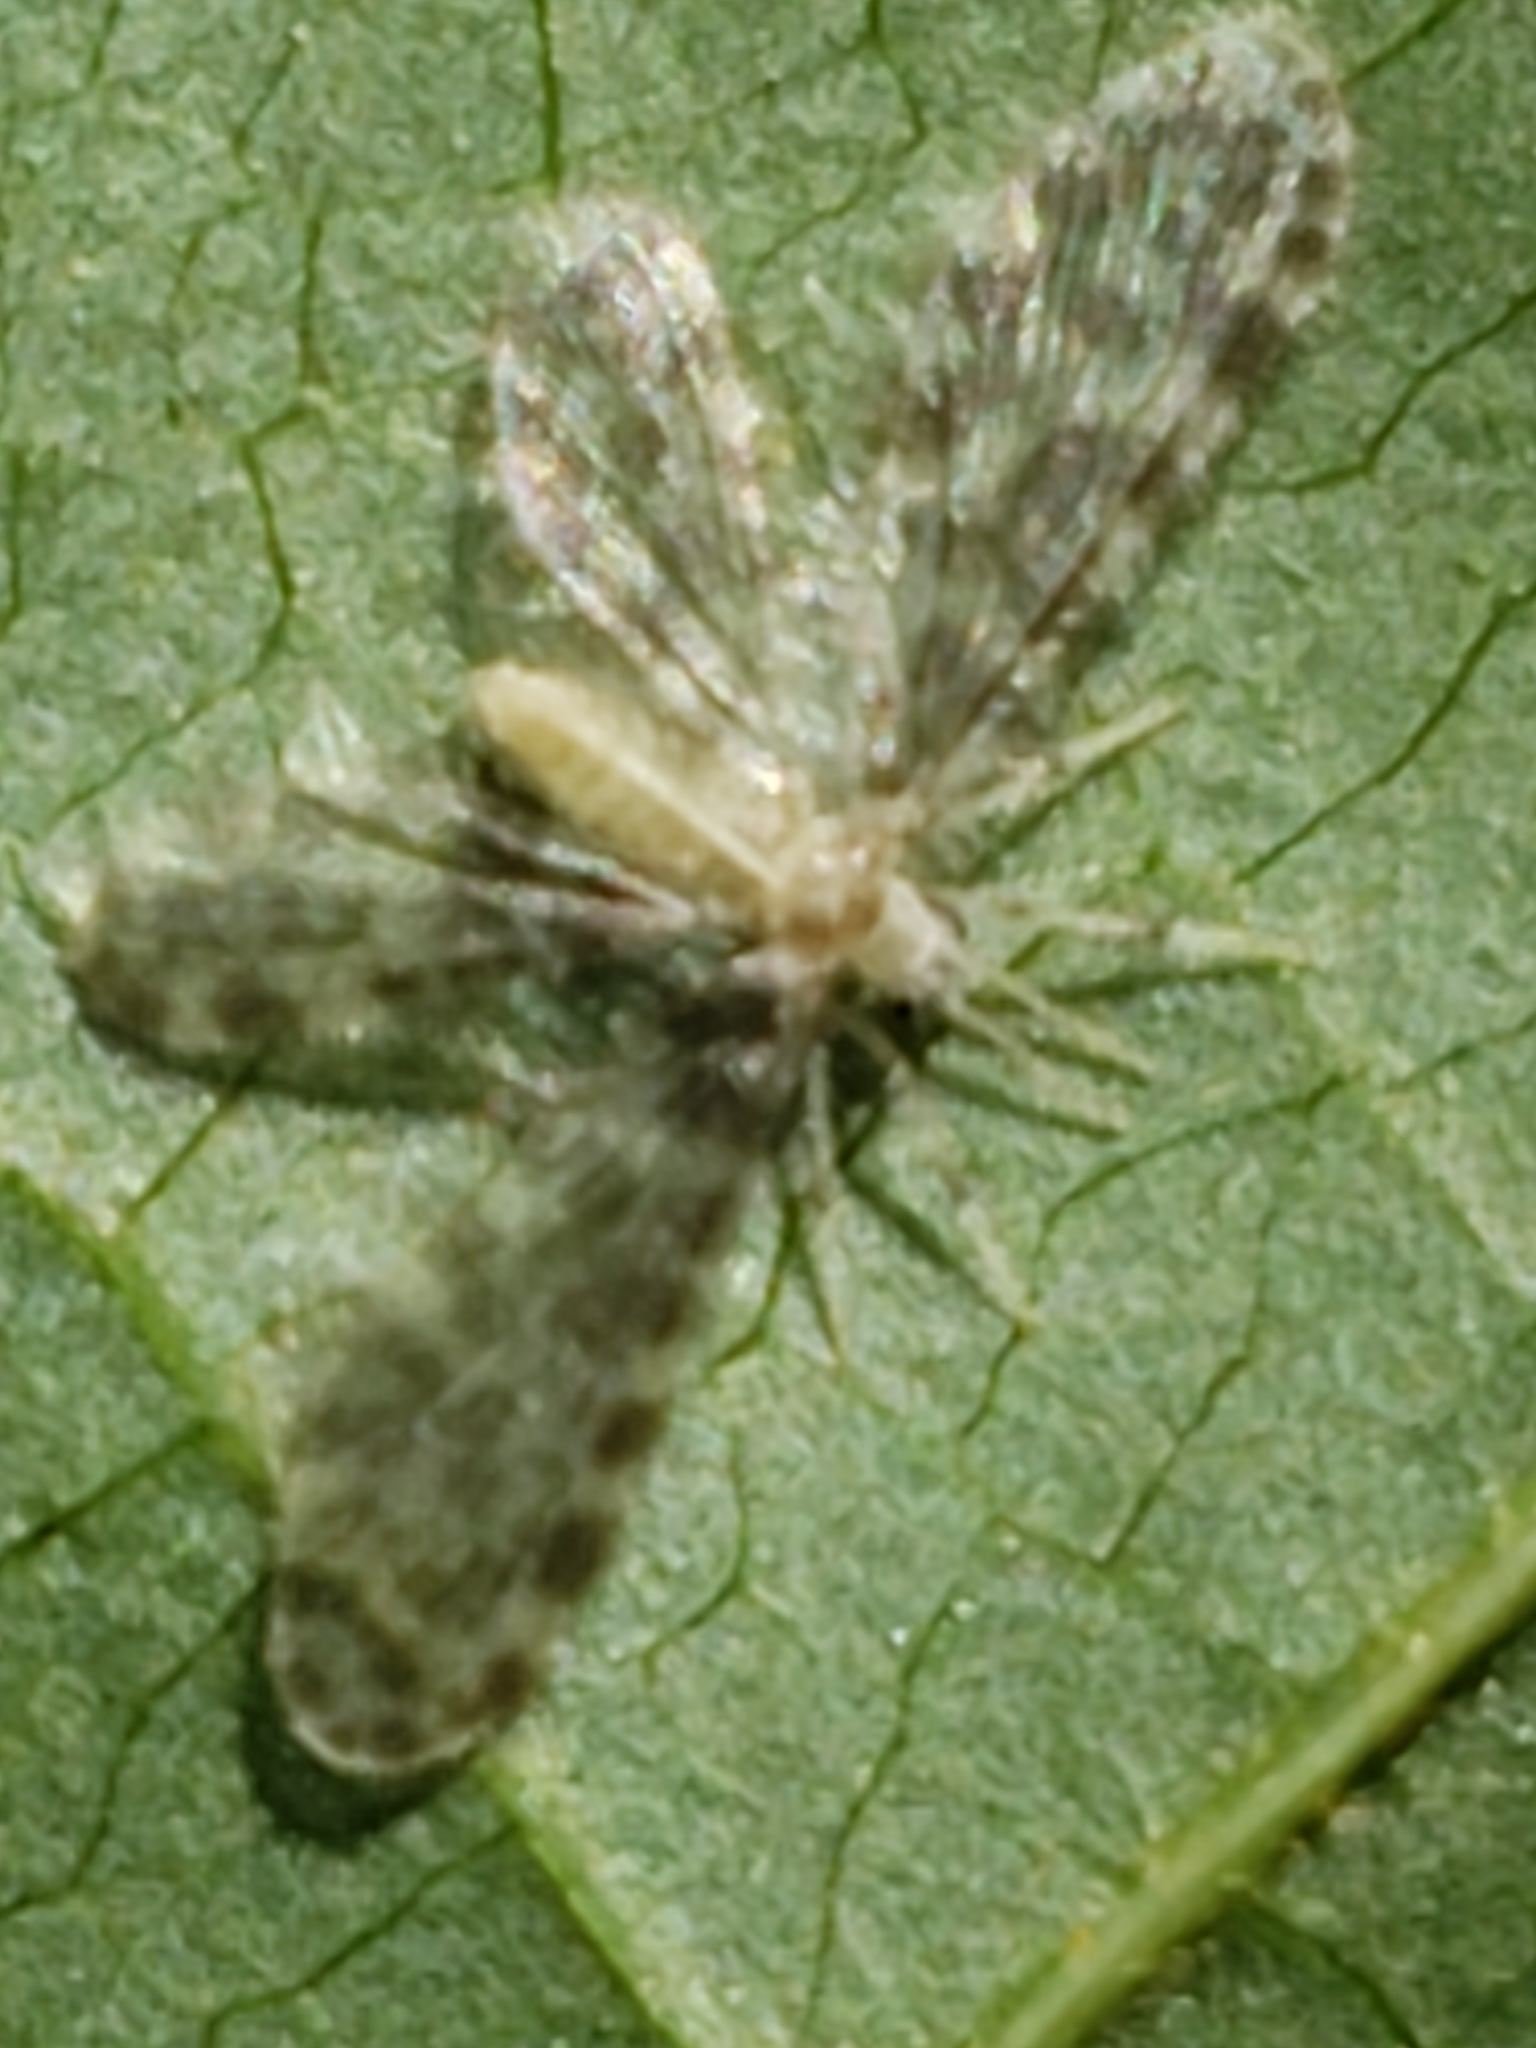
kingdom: Animalia
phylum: Arthropoda
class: Insecta
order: Neuroptera
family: Dilaridae
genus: Nallachius
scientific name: Nallachius americanus
